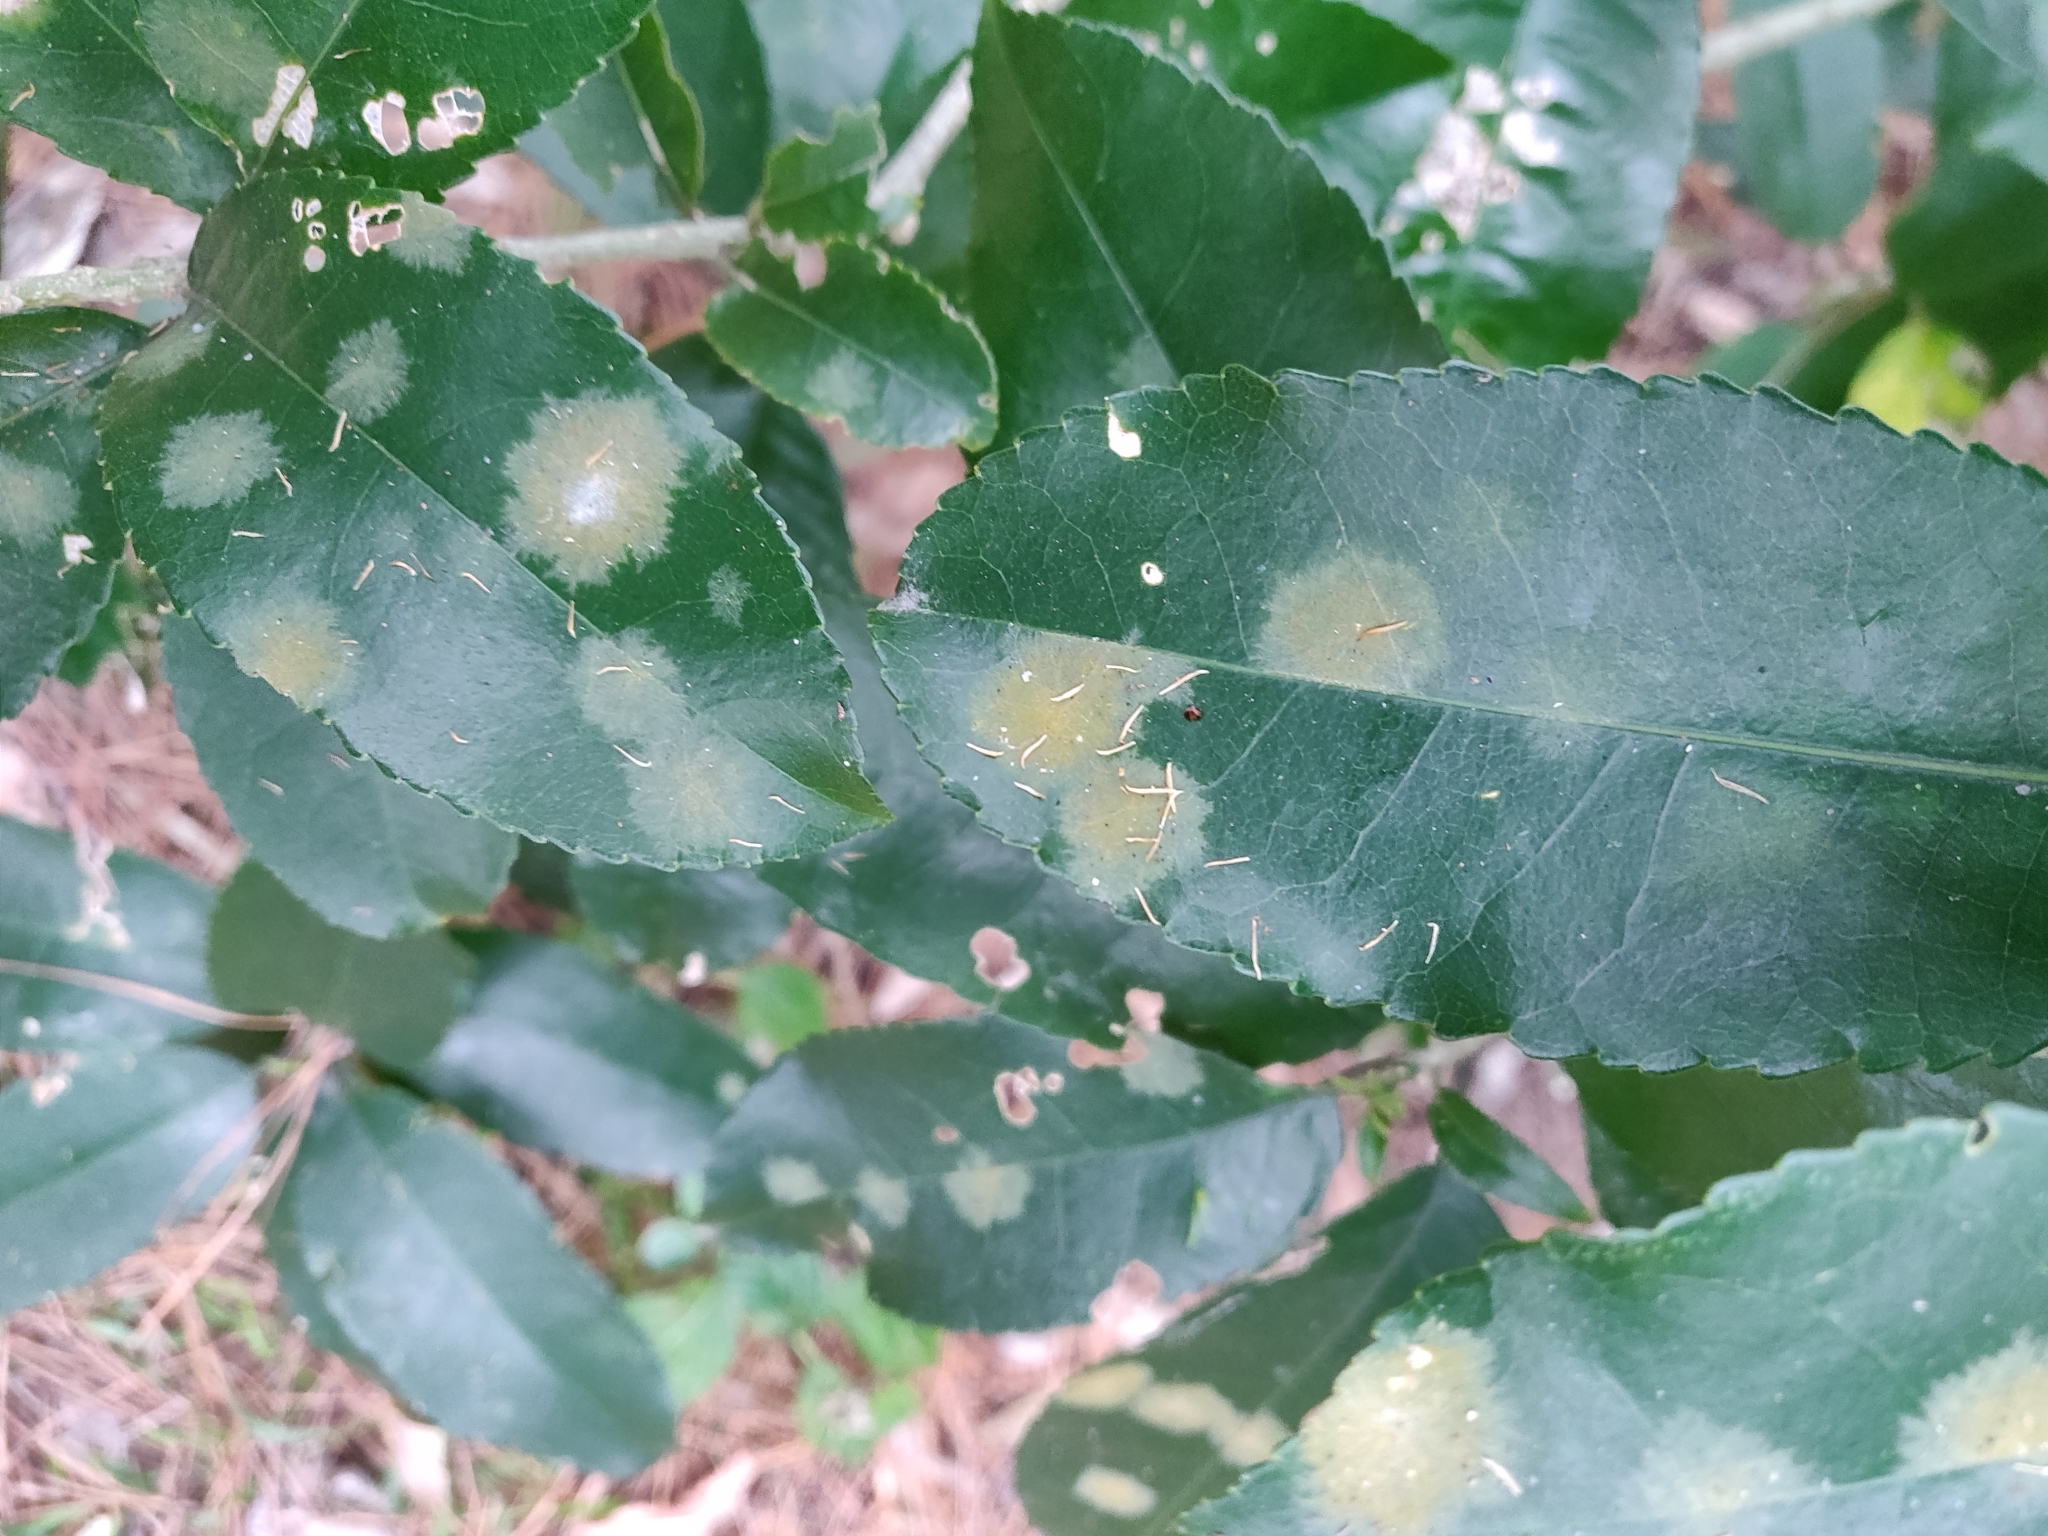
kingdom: Plantae
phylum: Chlorophyta
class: Ulvophyceae
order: Trentepohliales
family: Trentepohliaceae
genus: Cephaleuros
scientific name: Cephaleuros
